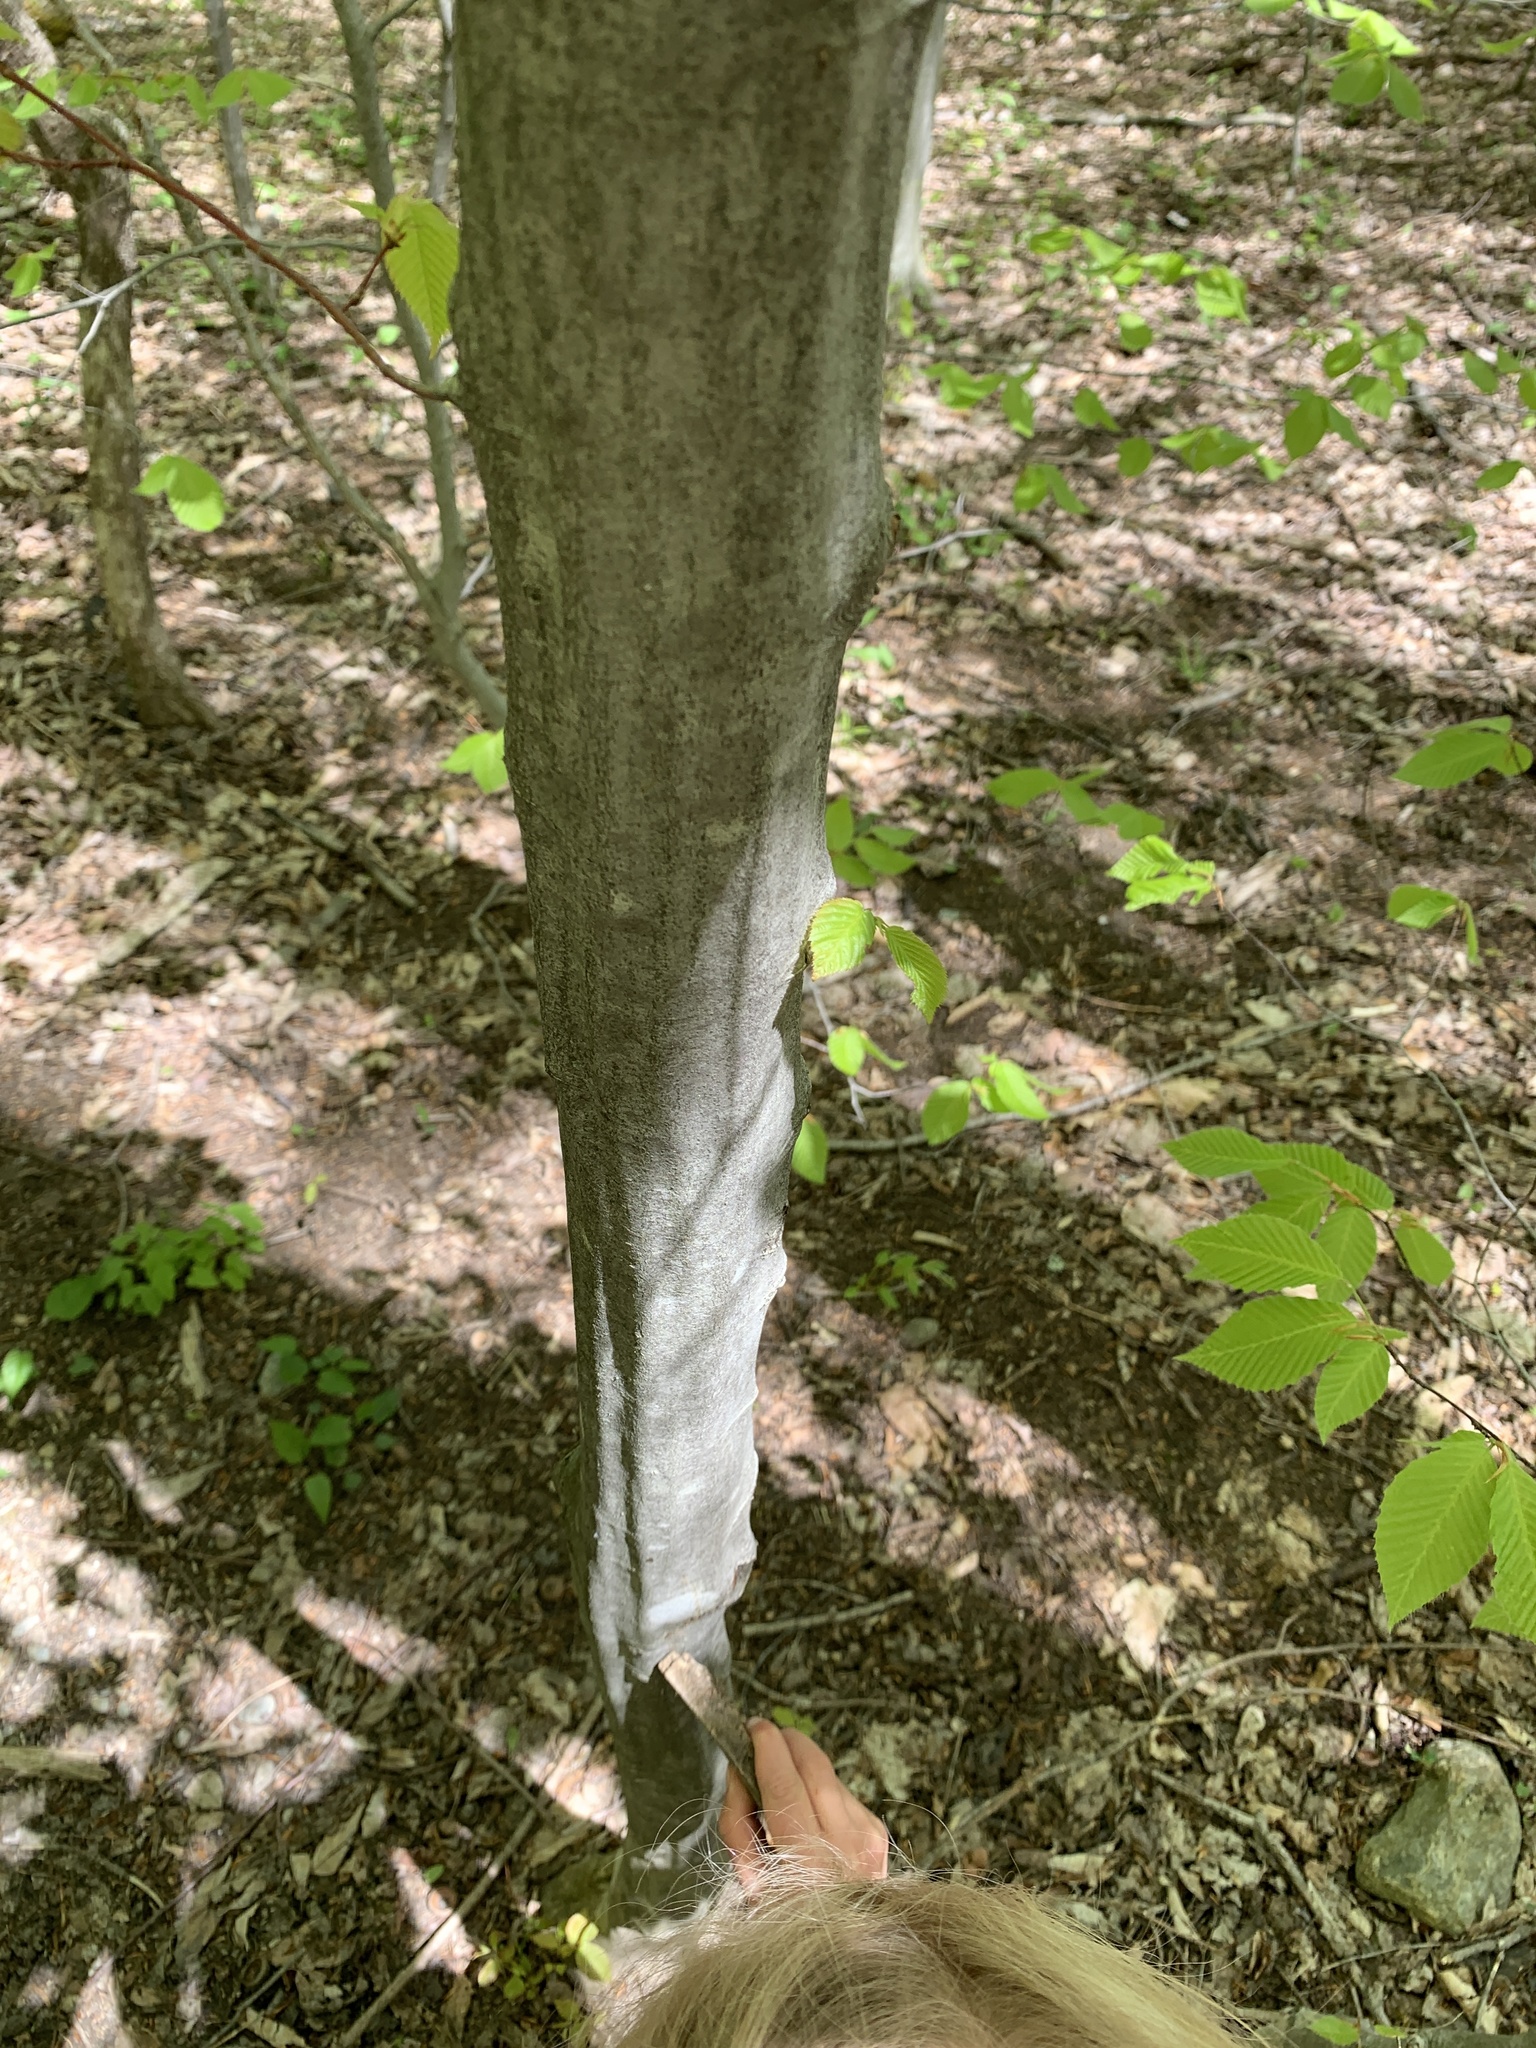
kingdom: Plantae
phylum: Tracheophyta
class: Magnoliopsida
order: Fagales
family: Betulaceae
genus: Carpinus
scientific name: Carpinus caroliniana
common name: American hornbeam
